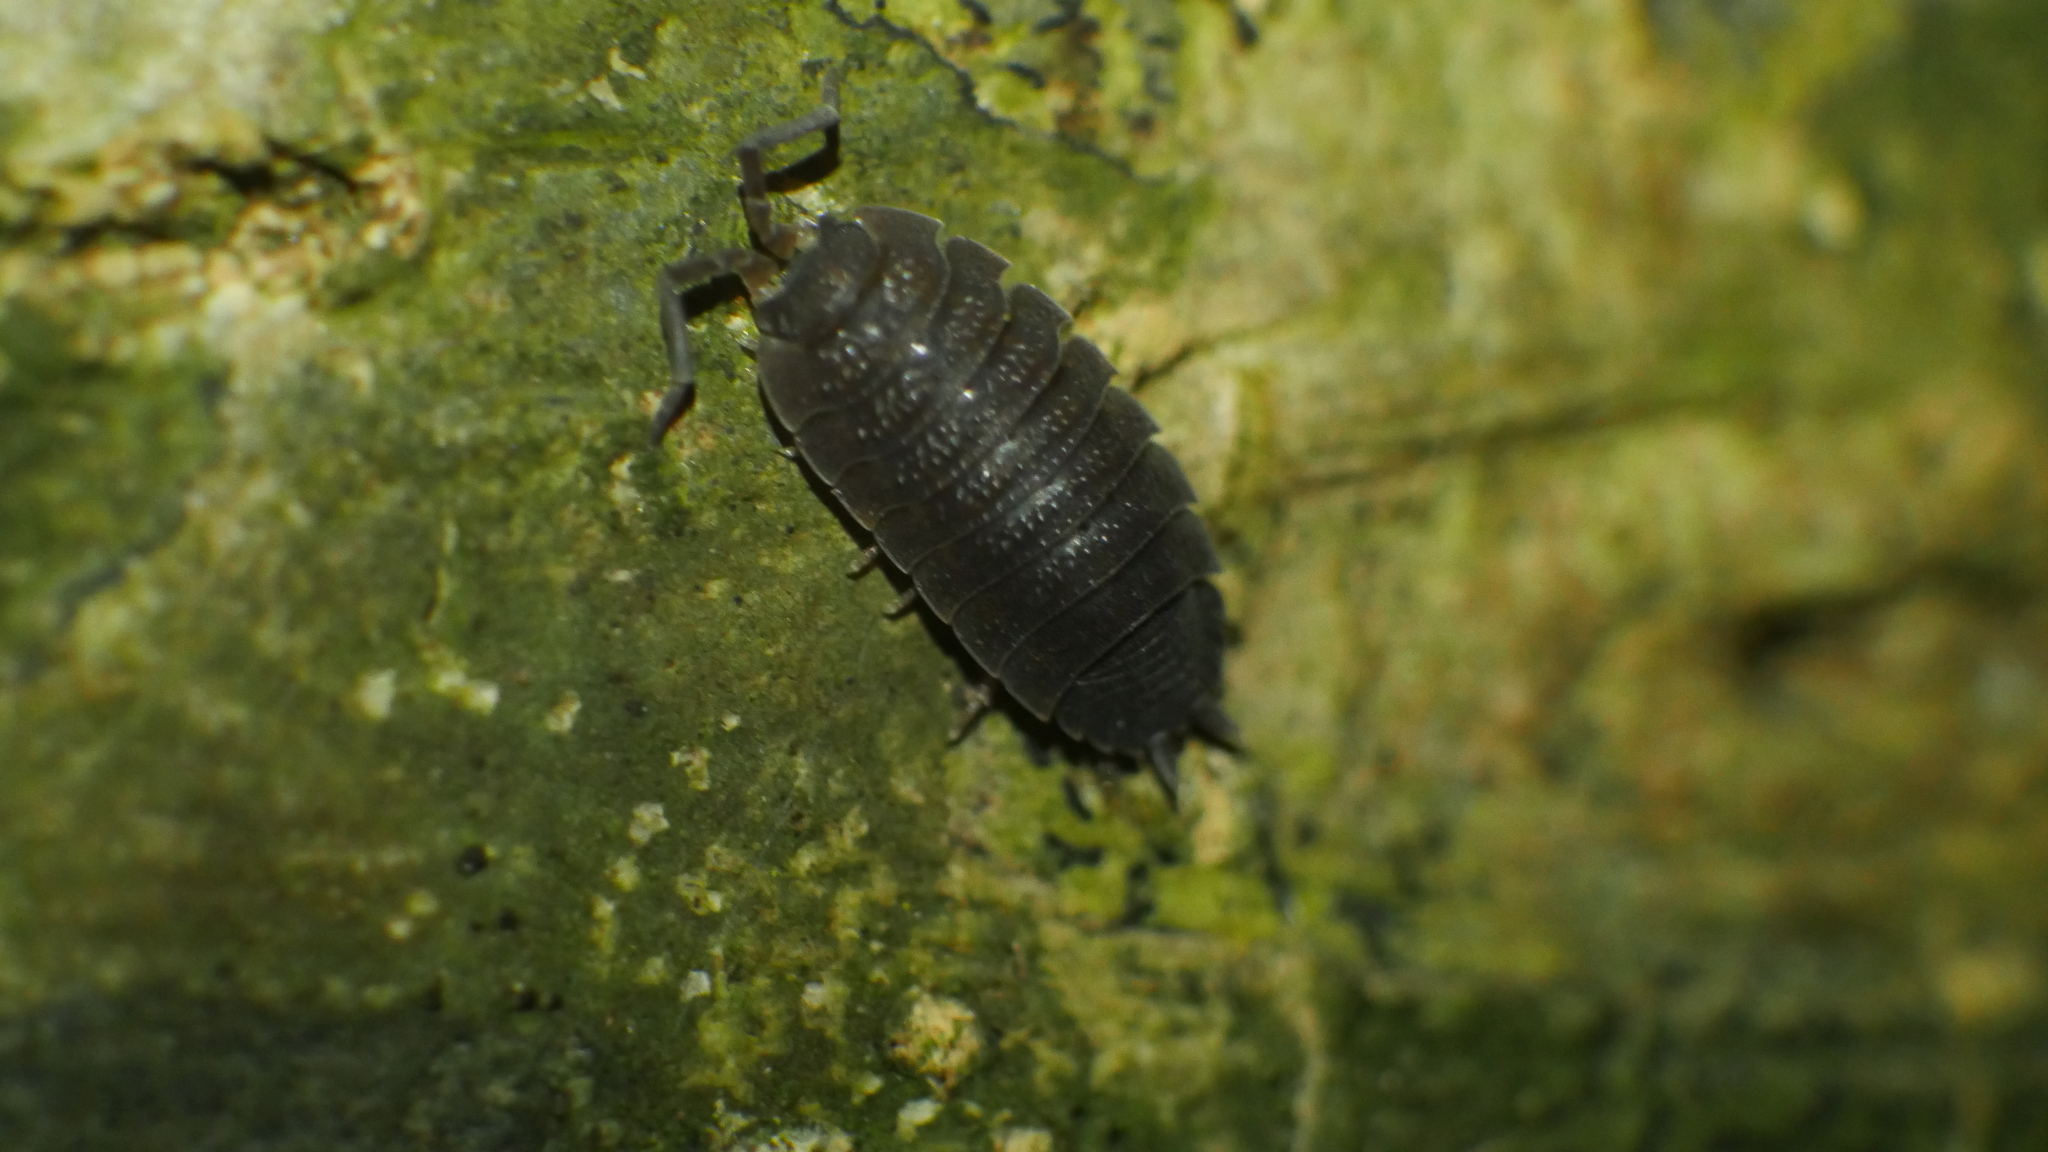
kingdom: Animalia
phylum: Arthropoda
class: Malacostraca
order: Isopoda
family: Porcellionidae
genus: Porcellio
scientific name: Porcellio scaber
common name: Common rough woodlouse
